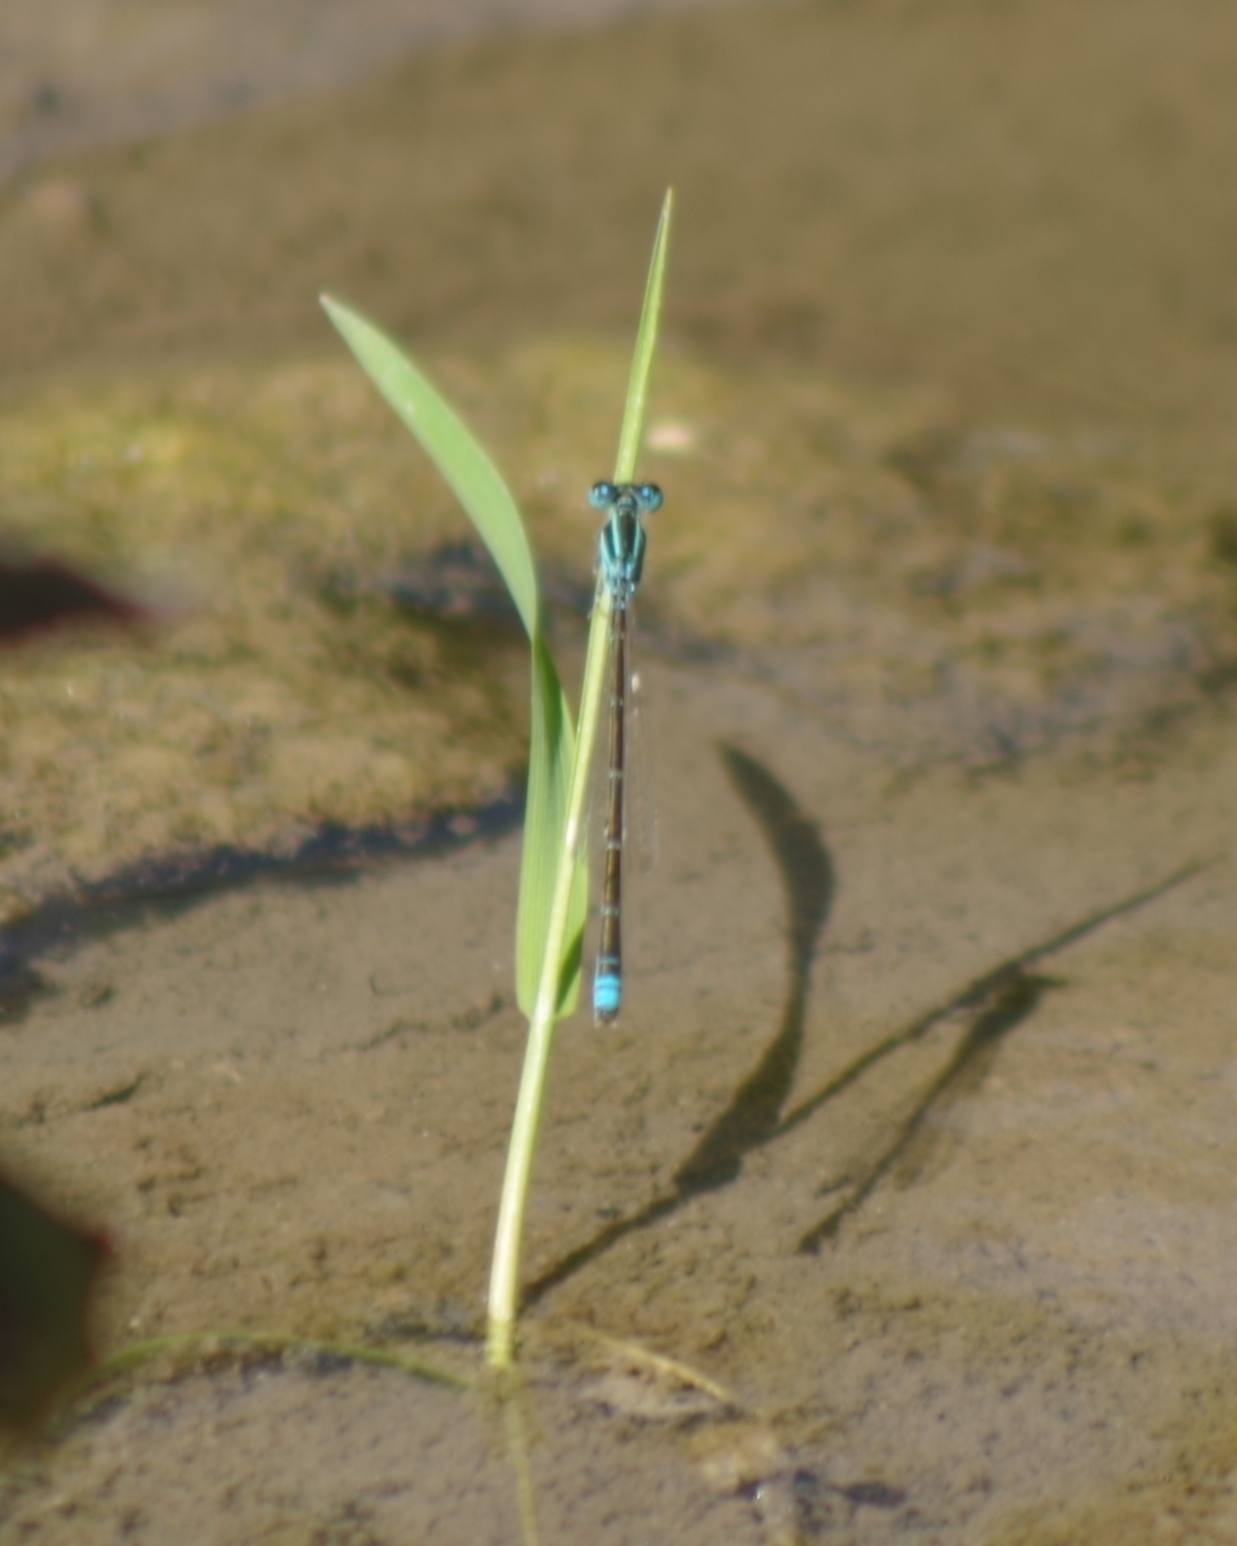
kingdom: Animalia
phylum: Arthropoda
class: Insecta
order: Odonata
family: Coenagrionidae
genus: Ischnura
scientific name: Ischnura pumilio
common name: Scarce blue-tailed damselfly
